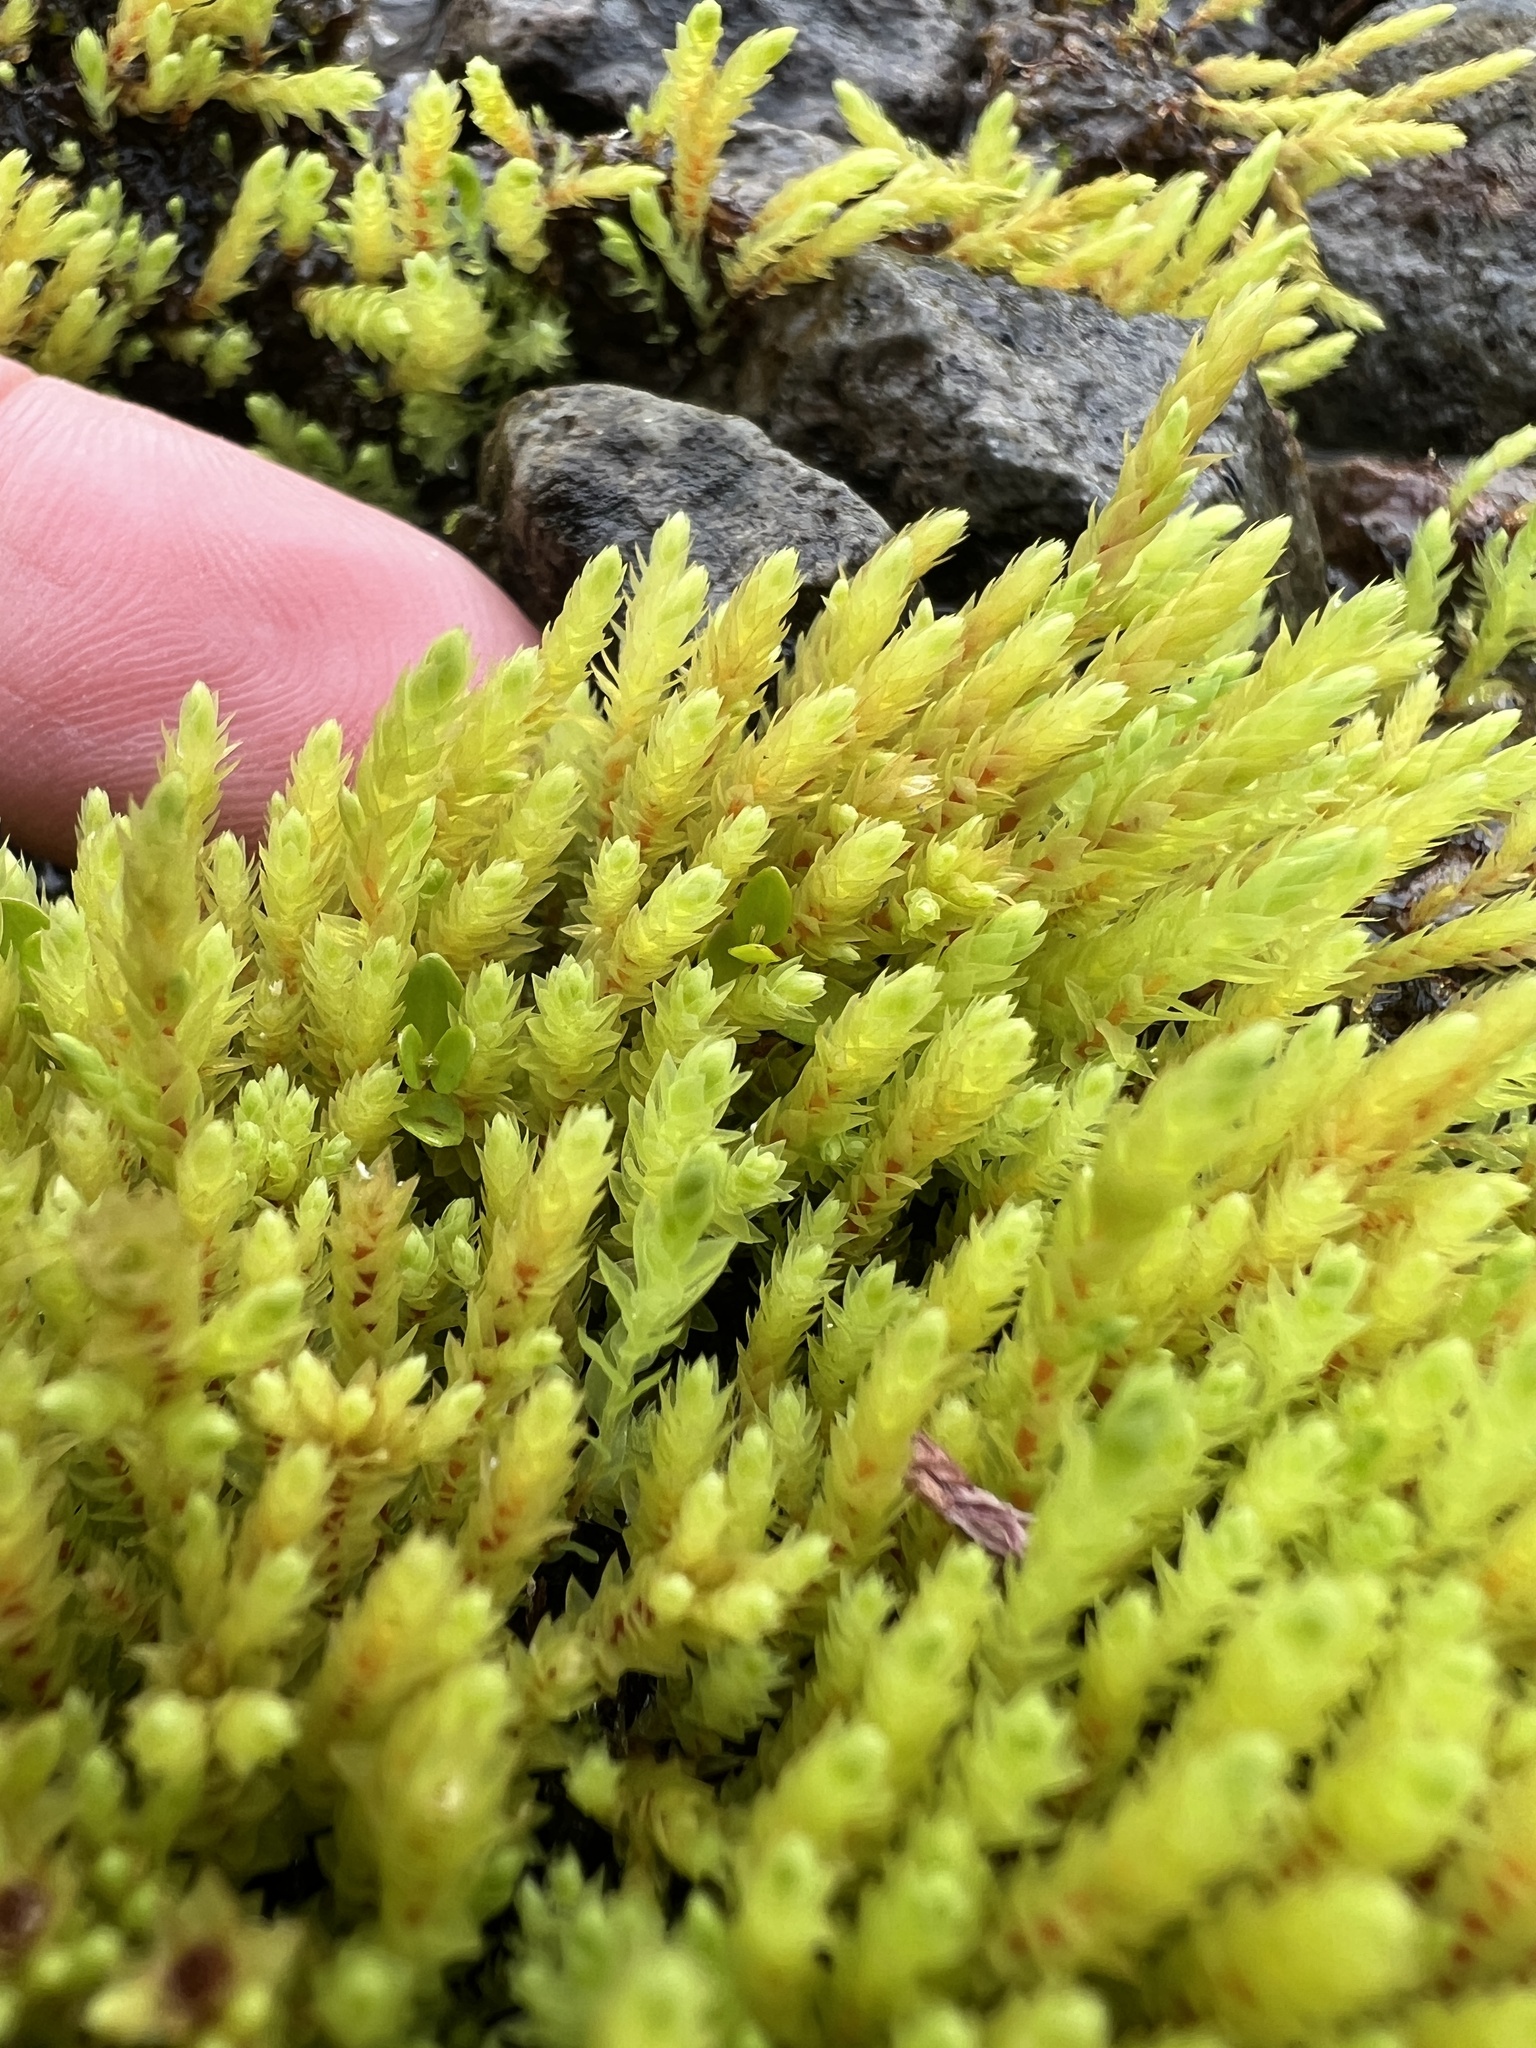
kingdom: Plantae
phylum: Bryophyta
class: Bryopsida
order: Bartramiales
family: Bartramiaceae
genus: Philonotis
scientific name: Philonotis fontana
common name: Fountain apple-moss
